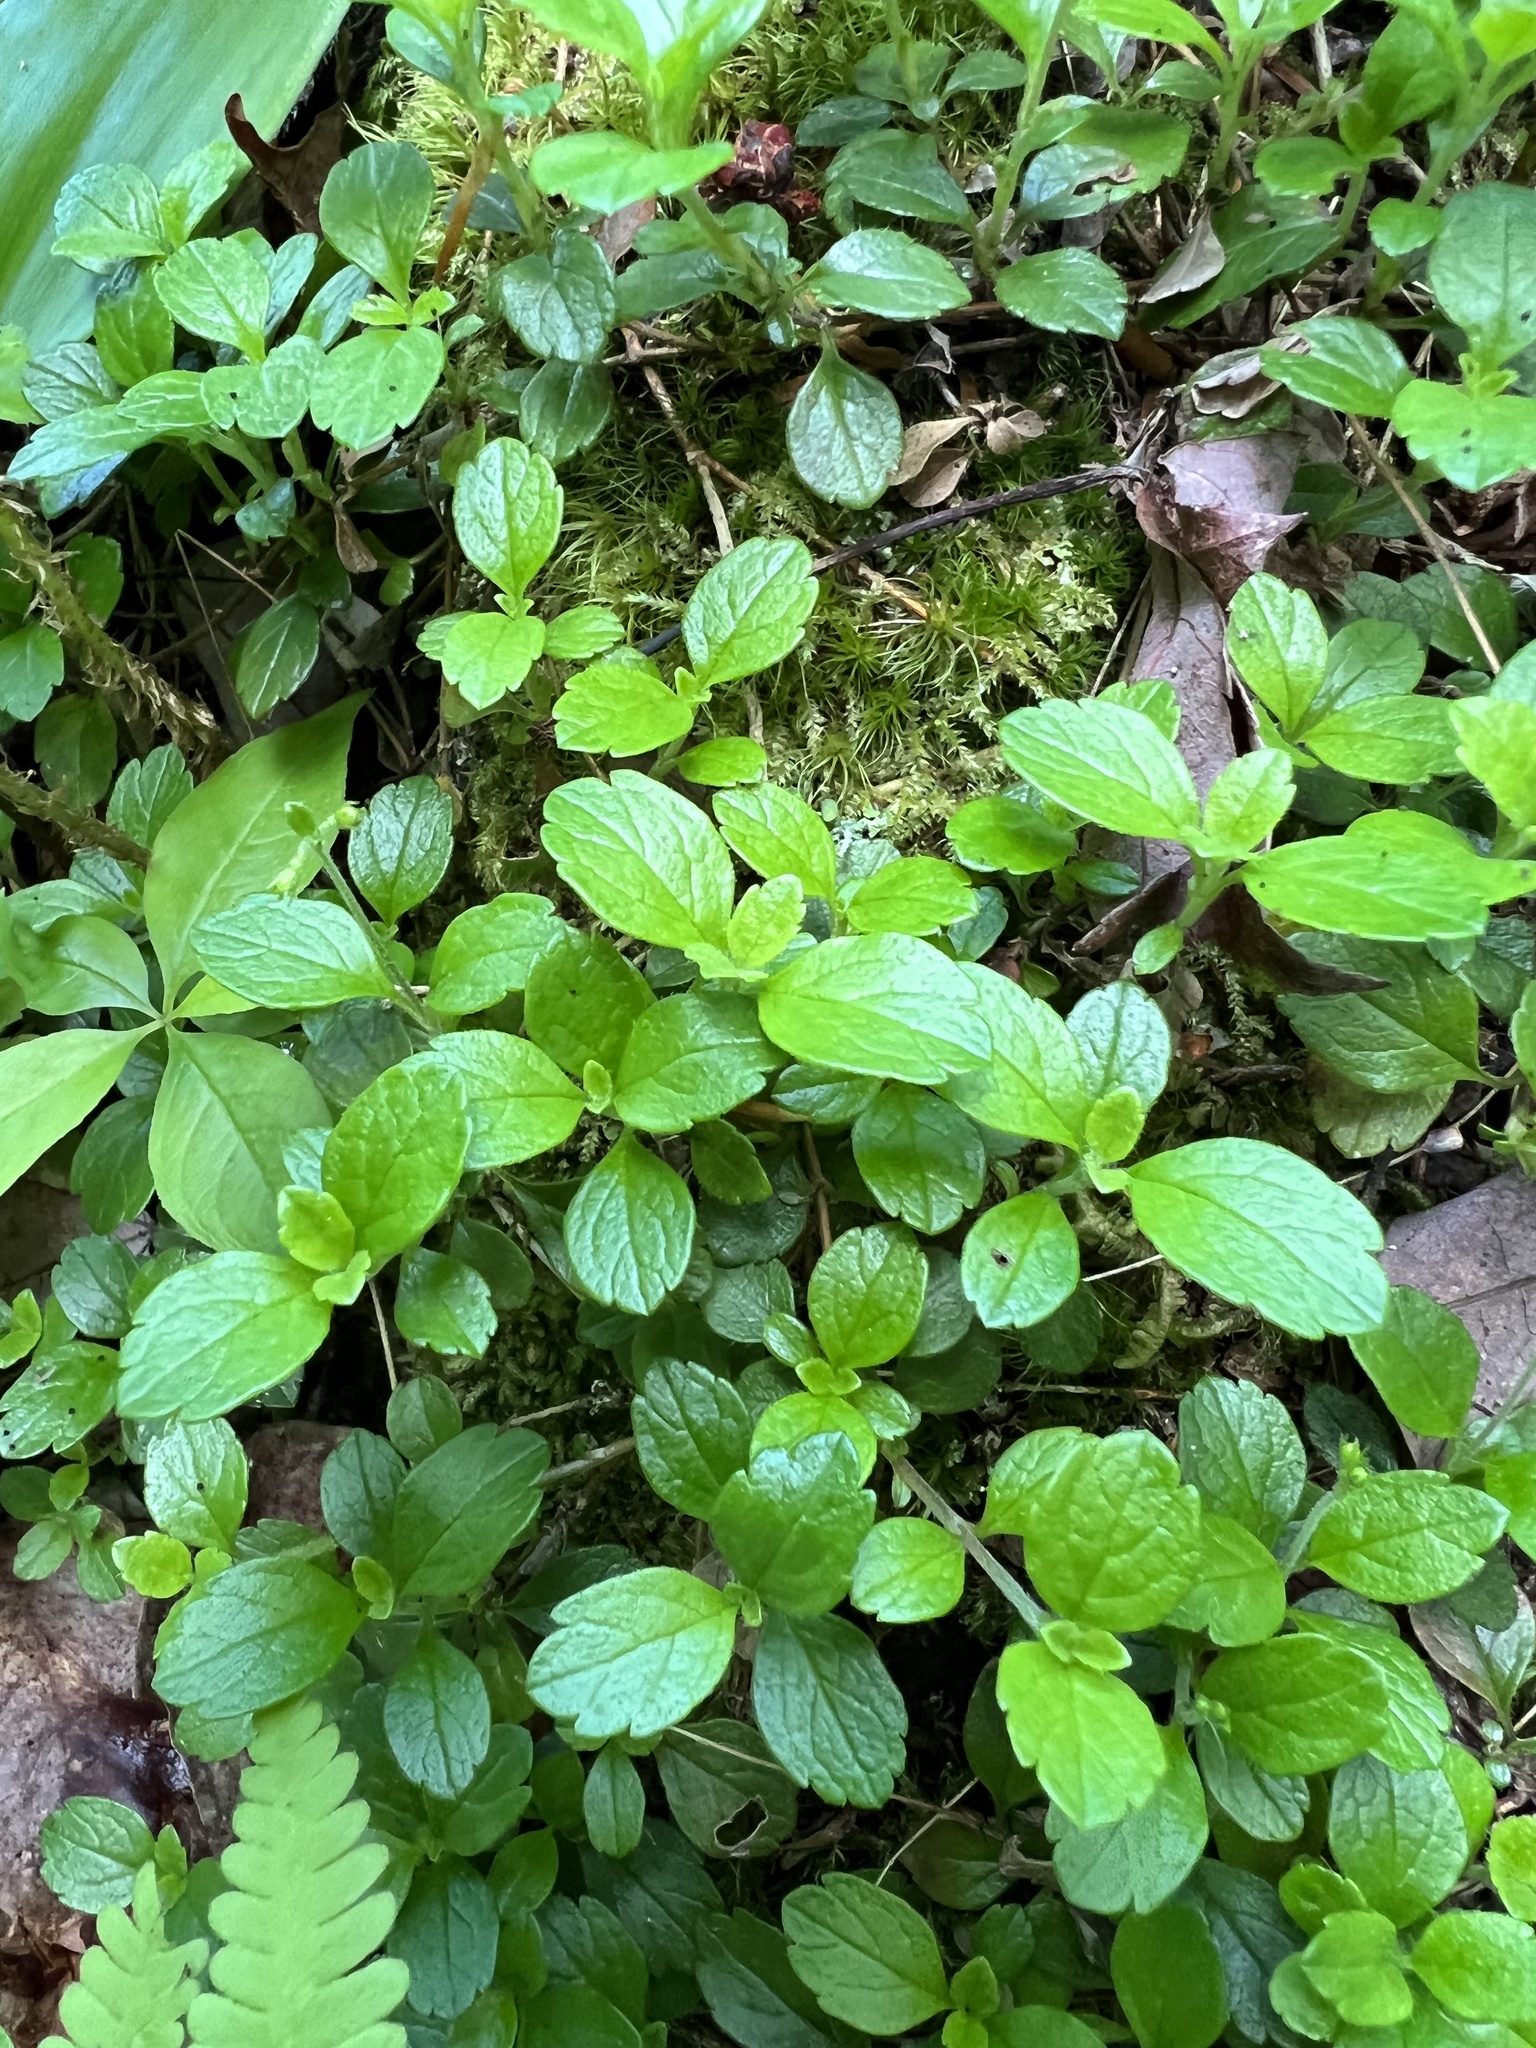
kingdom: Plantae
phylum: Tracheophyta
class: Magnoliopsida
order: Dipsacales
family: Caprifoliaceae
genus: Linnaea
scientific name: Linnaea borealis
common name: Twinflower
